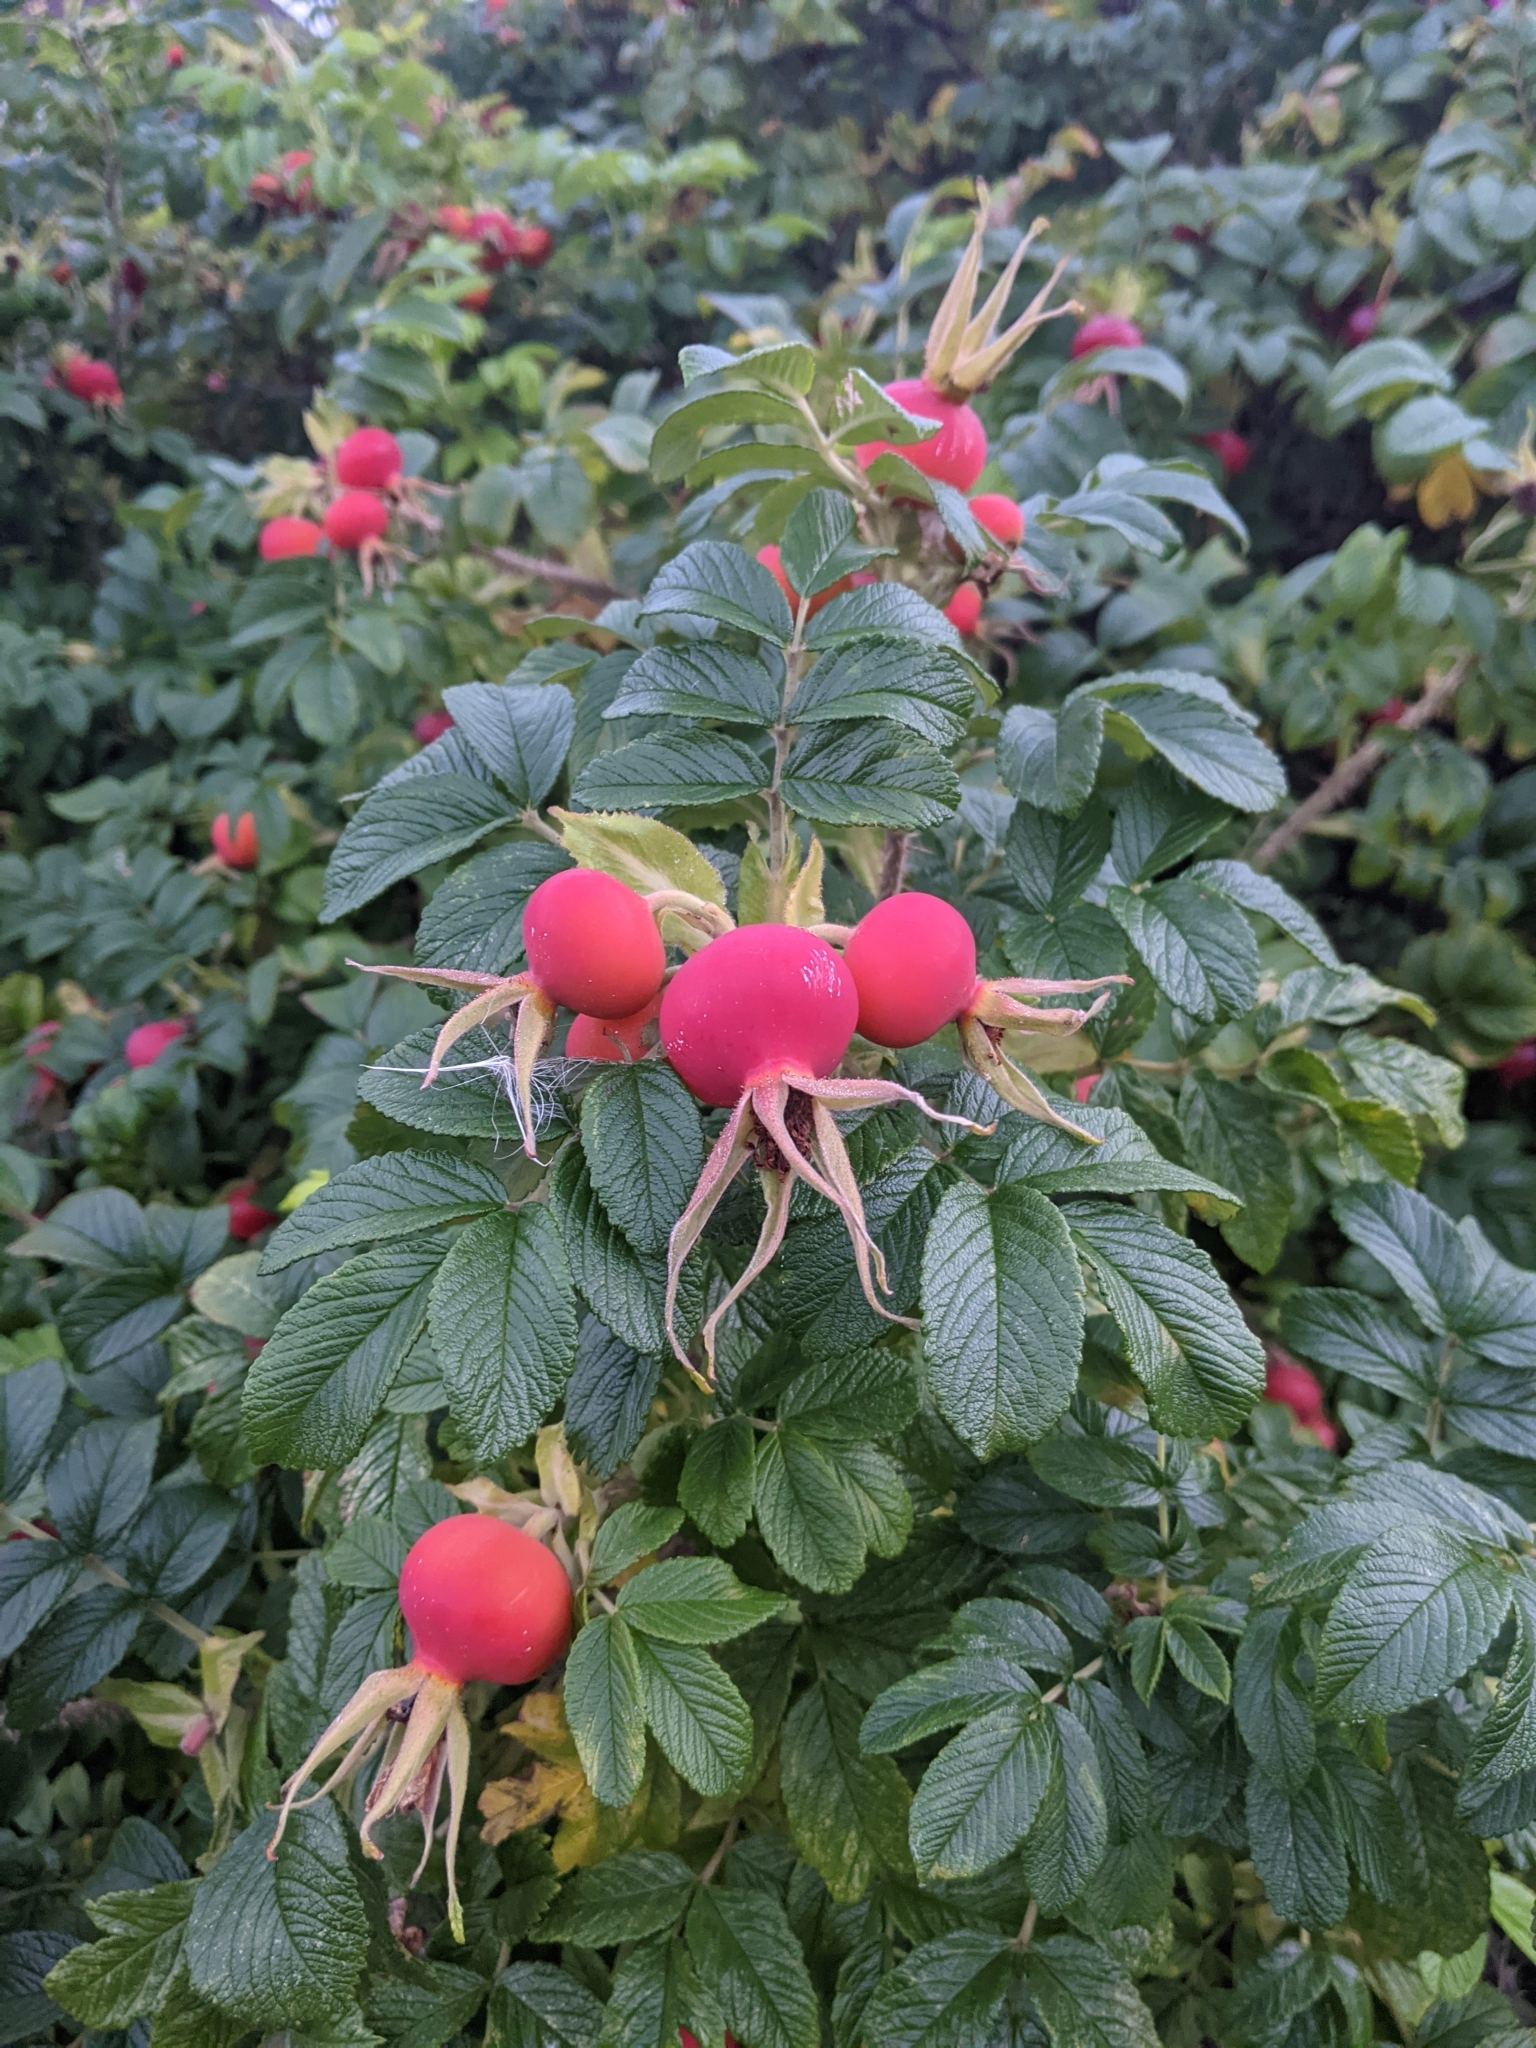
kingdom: Plantae
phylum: Tracheophyta
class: Magnoliopsida
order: Rosales
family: Rosaceae
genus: Rosa
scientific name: Rosa rugosa
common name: Japanese rose
